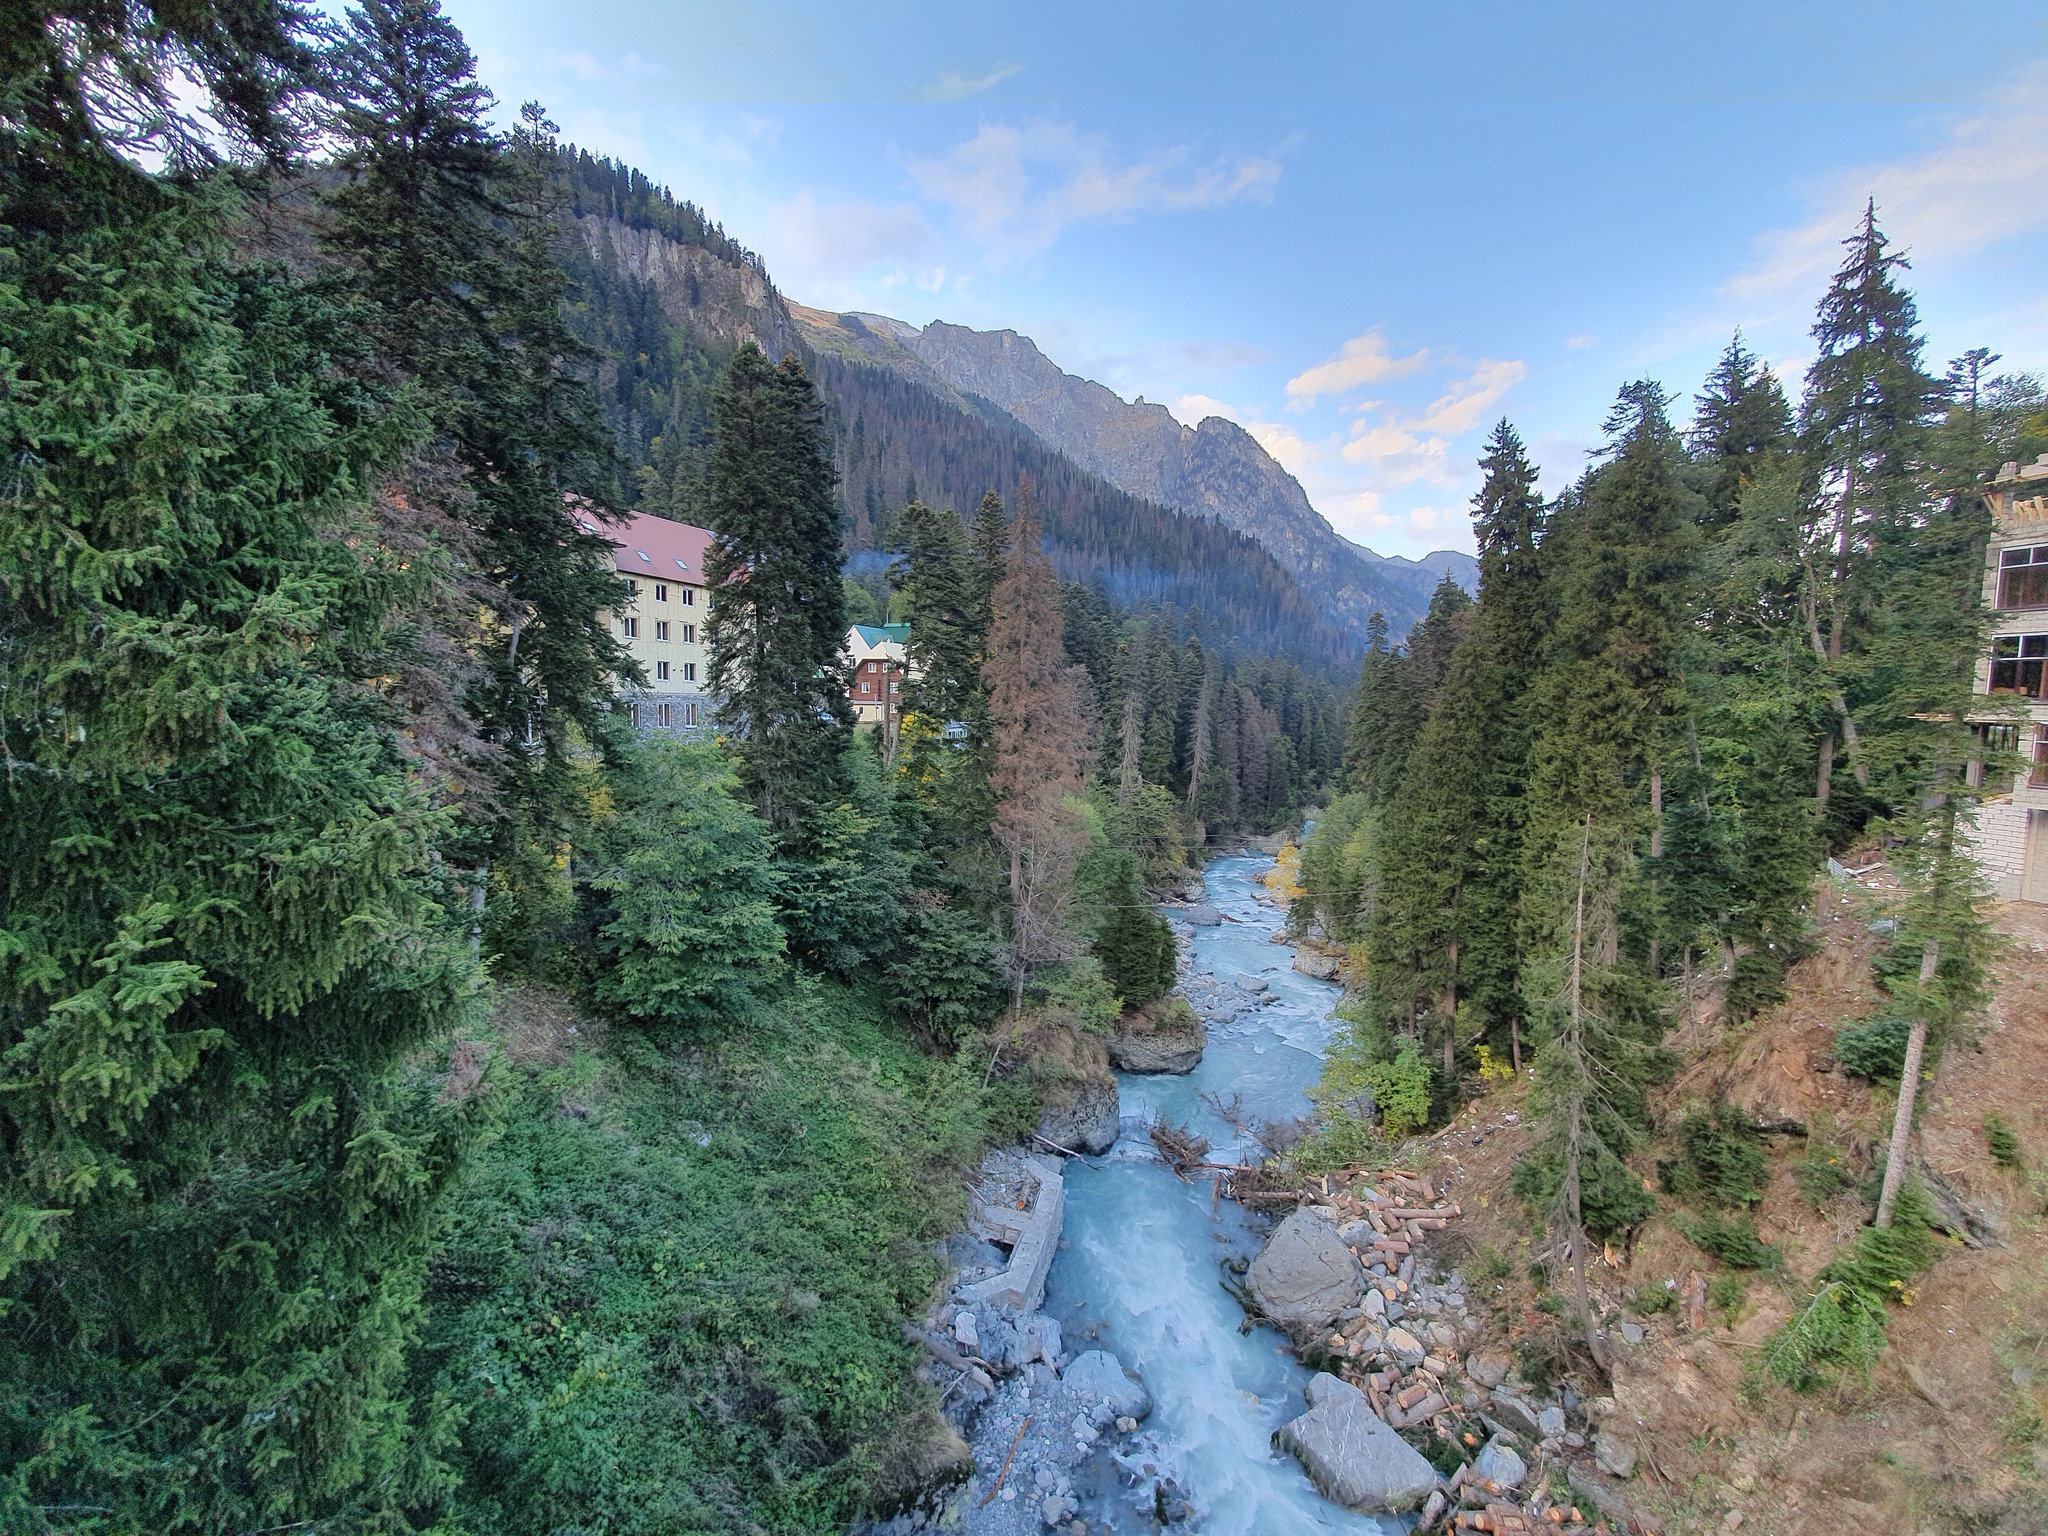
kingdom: Plantae
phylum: Tracheophyta
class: Pinopsida
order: Pinales
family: Pinaceae
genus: Picea
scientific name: Picea orientalis
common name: Oriental spruce
